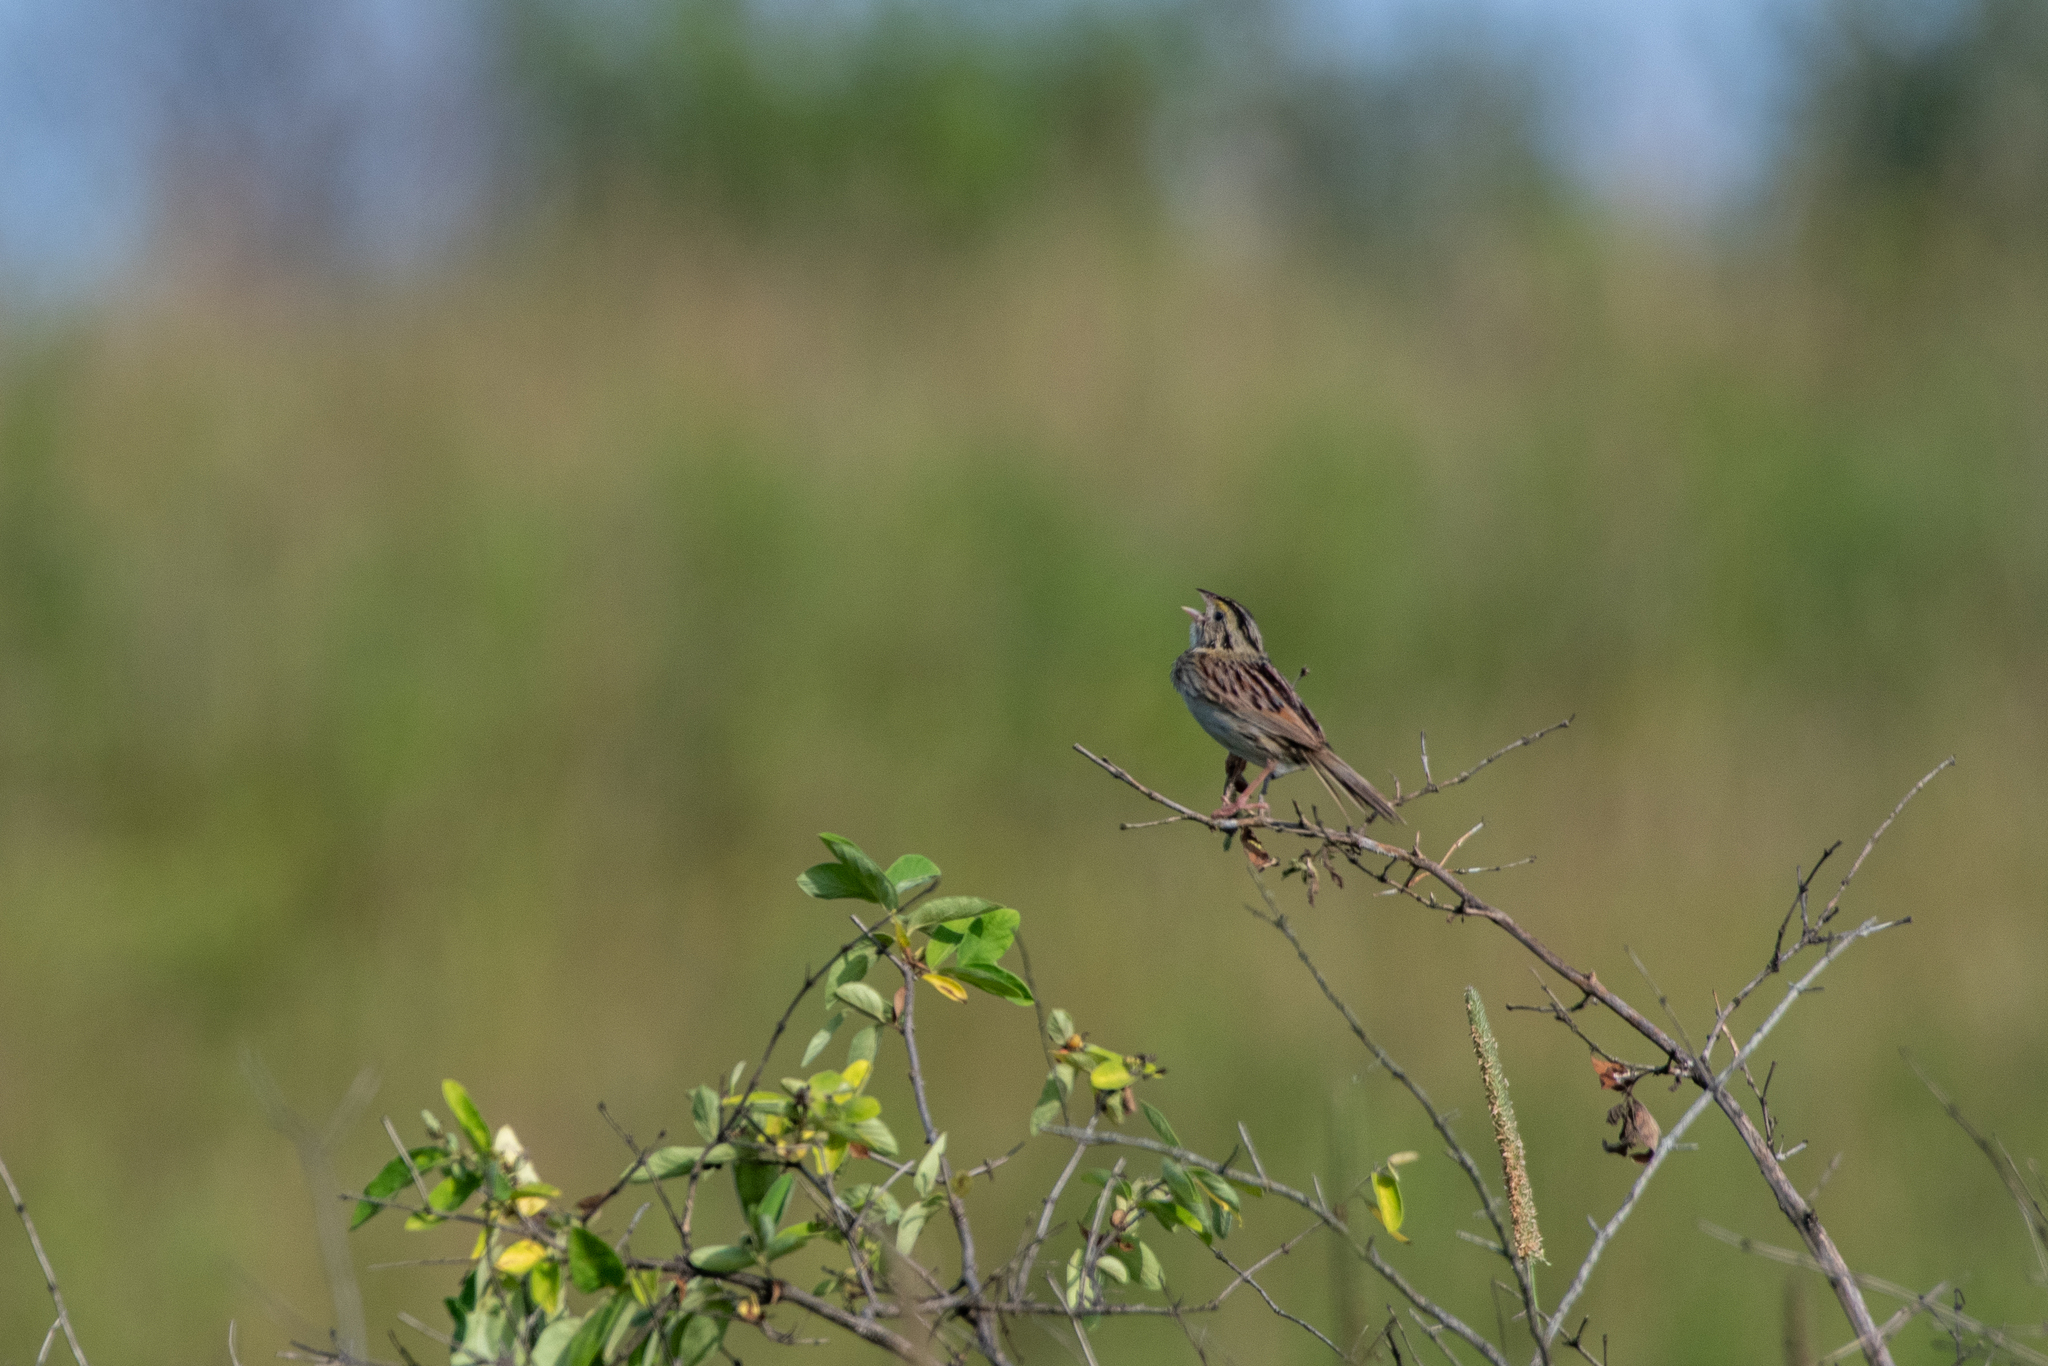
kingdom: Animalia
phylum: Chordata
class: Aves
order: Passeriformes
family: Passerellidae
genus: Centronyx
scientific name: Centronyx henslowii
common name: Henslow's sparrow
